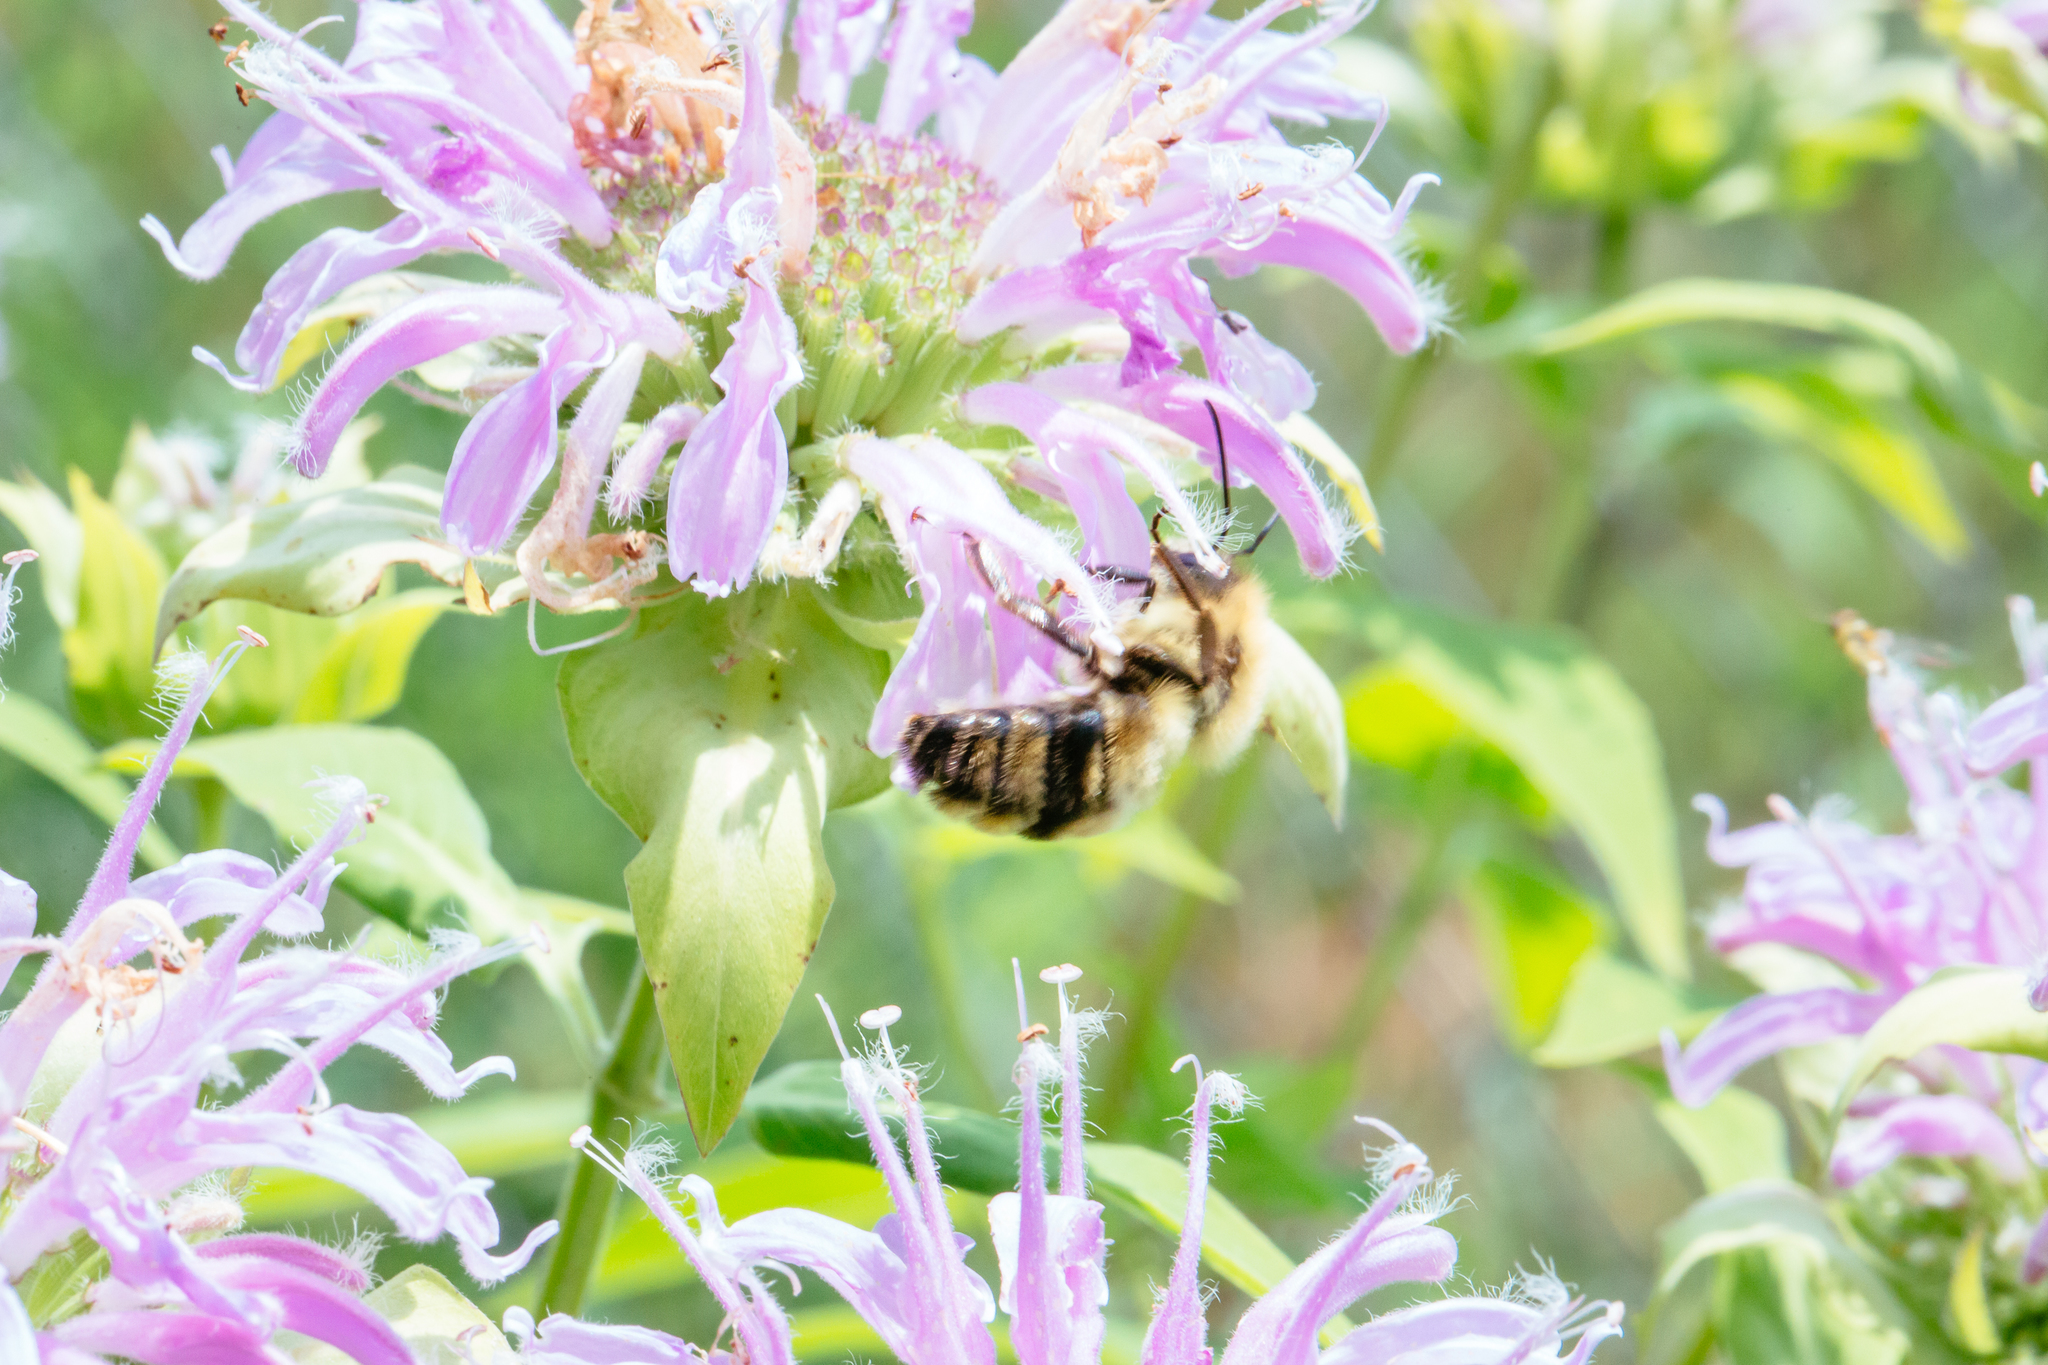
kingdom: Animalia
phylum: Arthropoda
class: Insecta
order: Hymenoptera
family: Apidae
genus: Bombus
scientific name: Bombus bimaculatus
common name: Two-spotted bumble bee
